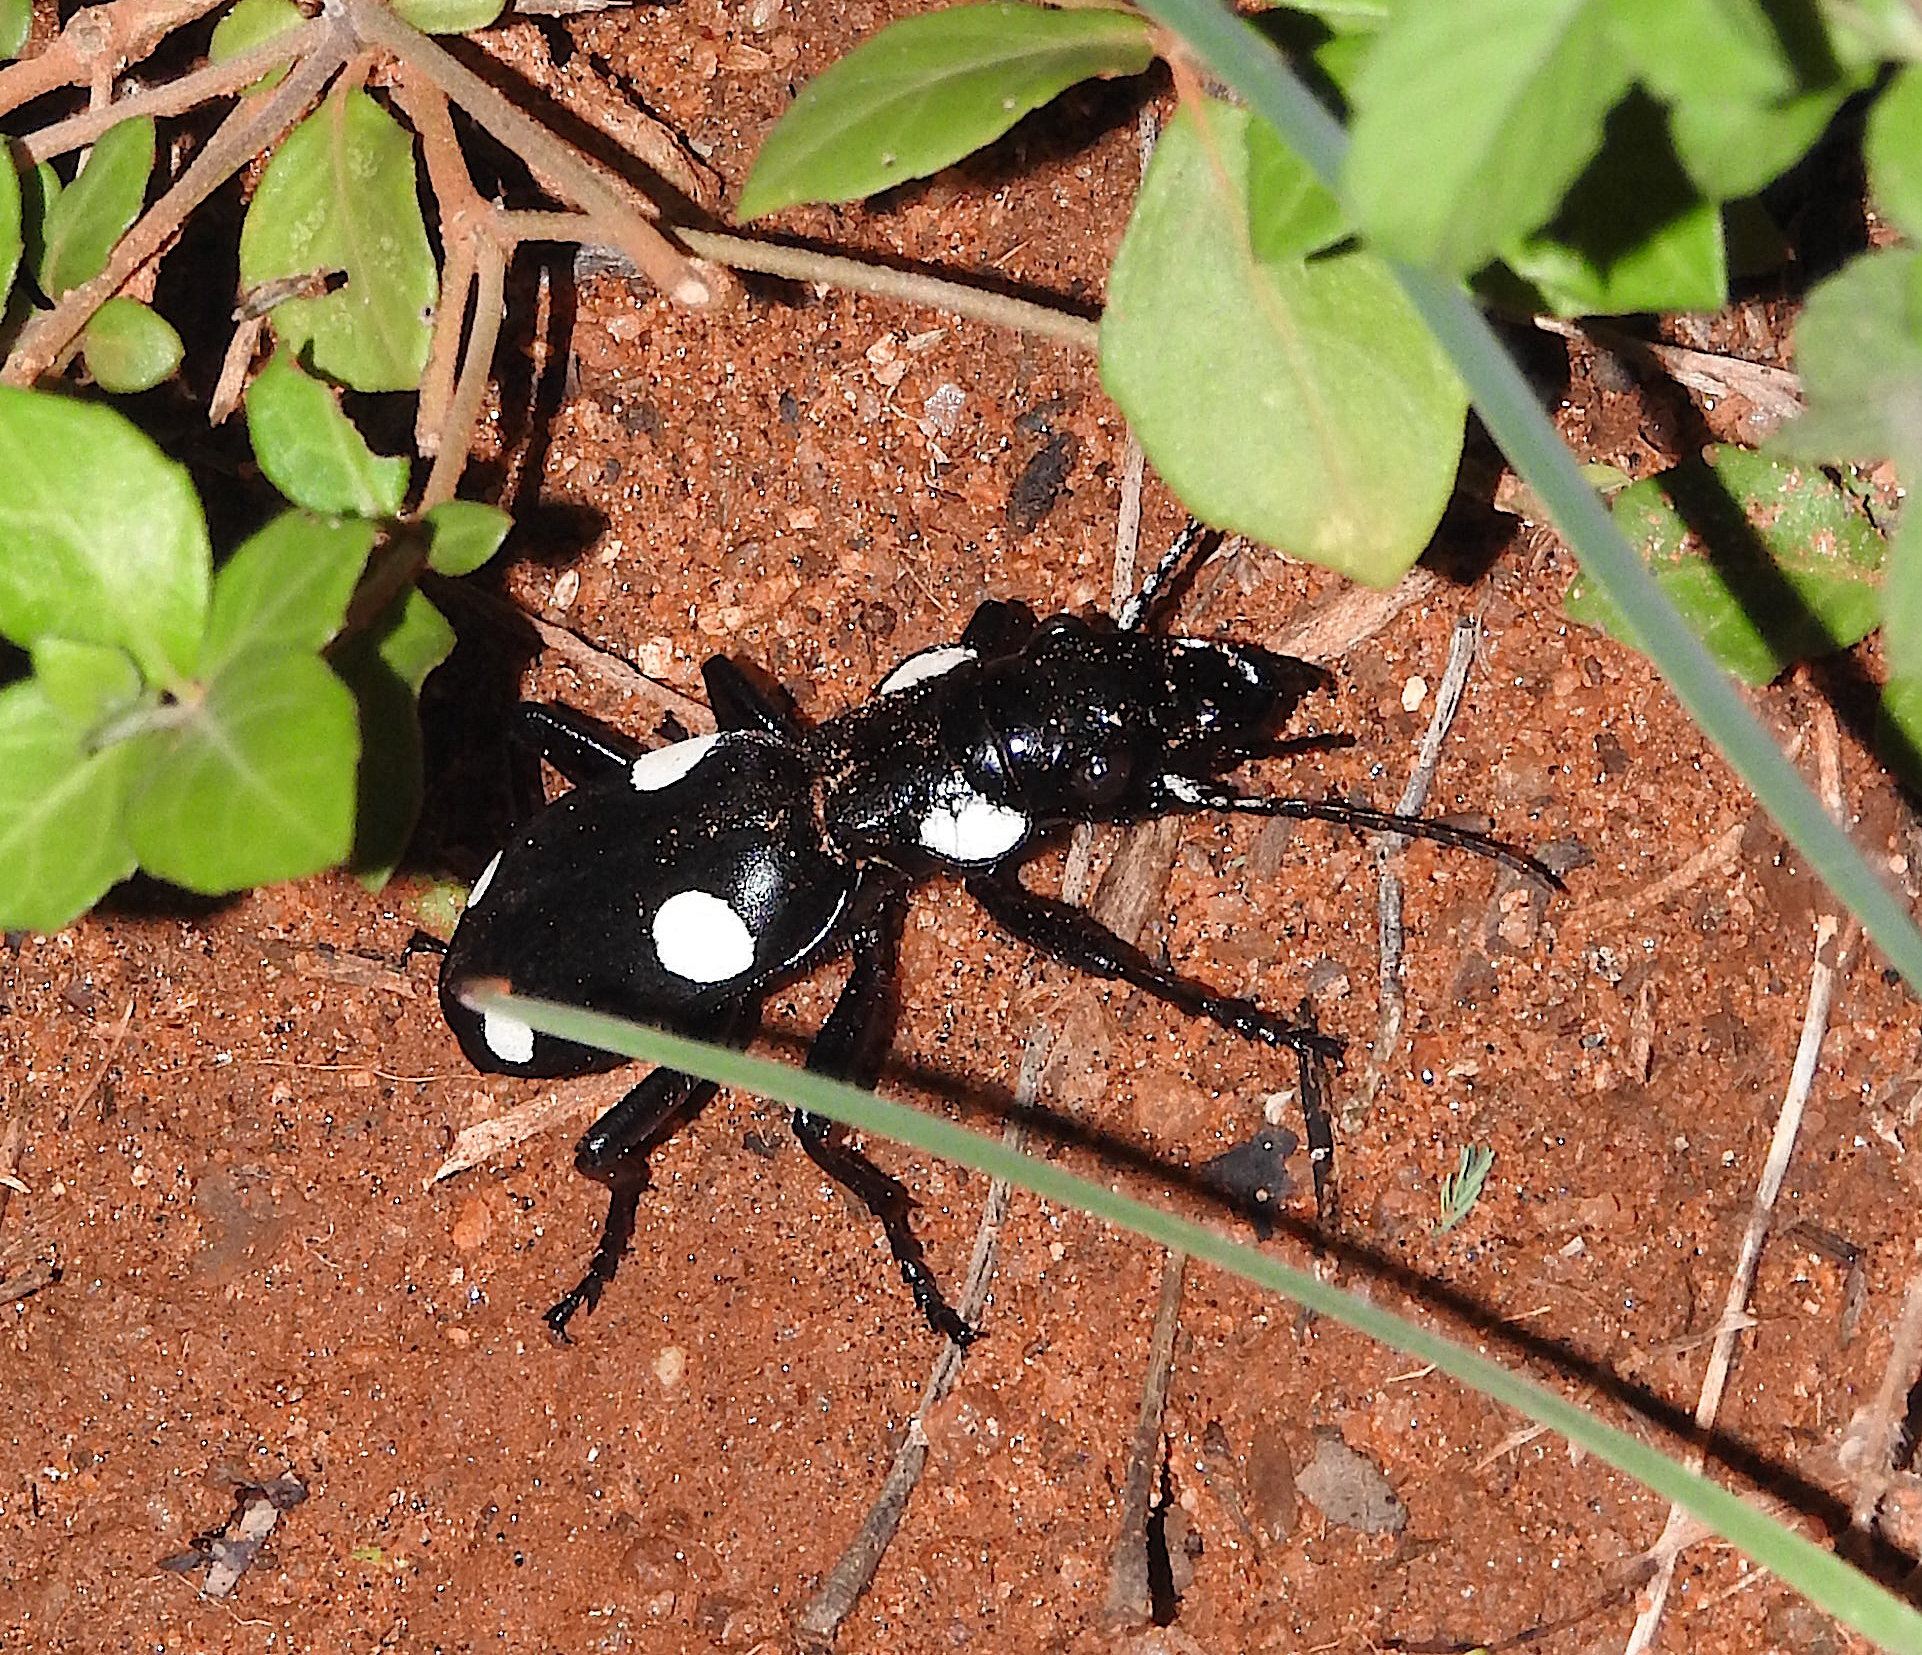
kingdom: Animalia
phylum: Arthropoda
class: Insecta
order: Coleoptera
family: Carabidae
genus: Anthia
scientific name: Anthia sexguttata
